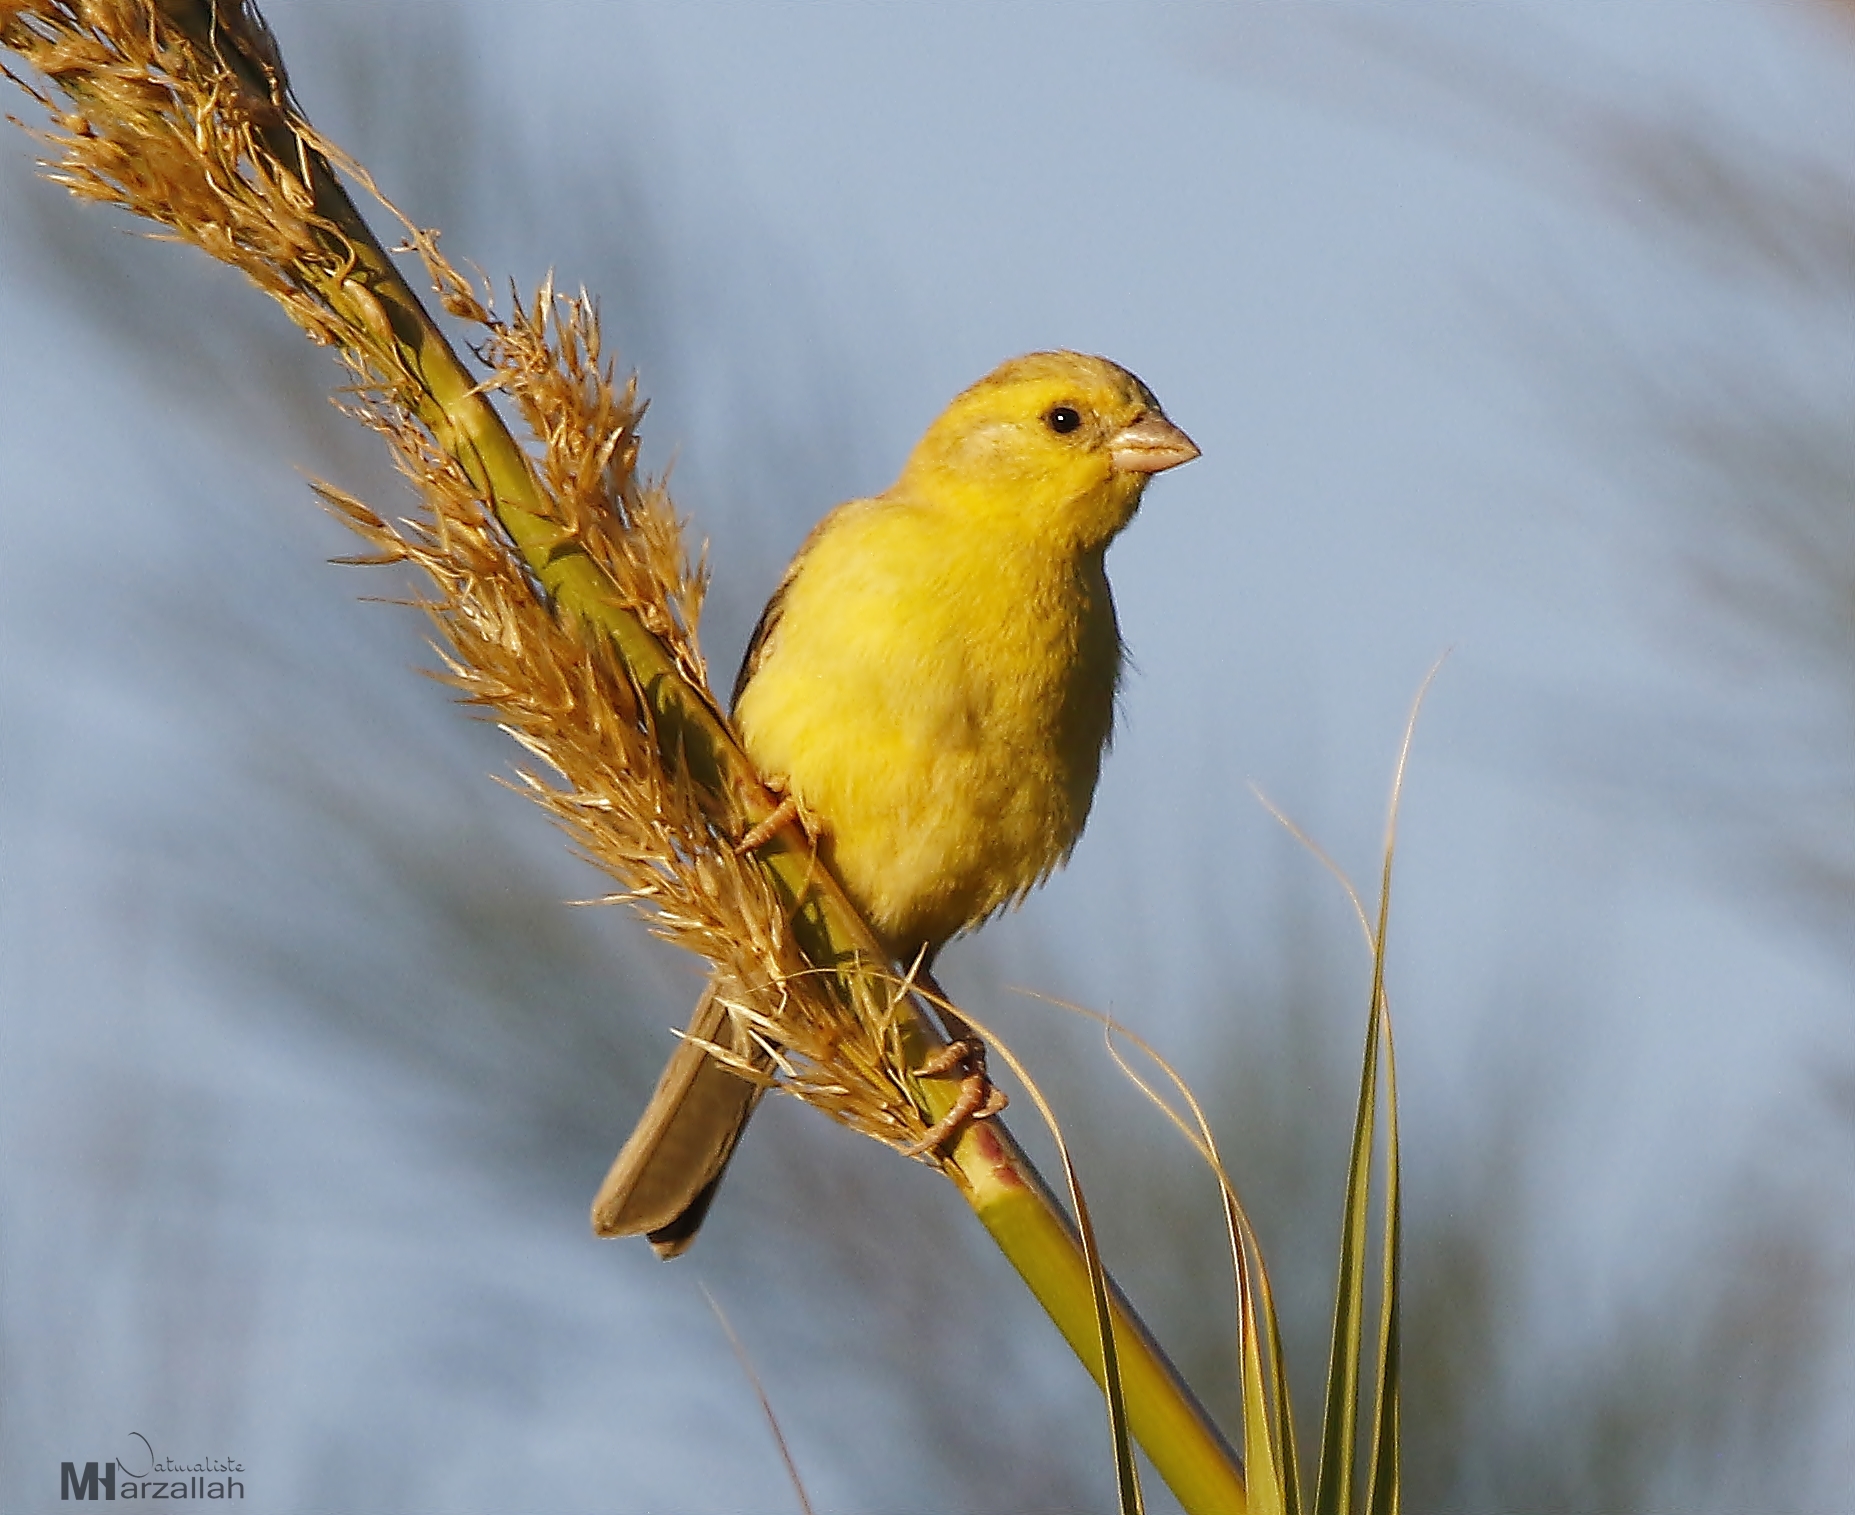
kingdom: Animalia
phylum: Chordata
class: Aves
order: Passeriformes
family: Passeridae
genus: Passer
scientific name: Passer luteus
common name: Sudan golden sparrow
